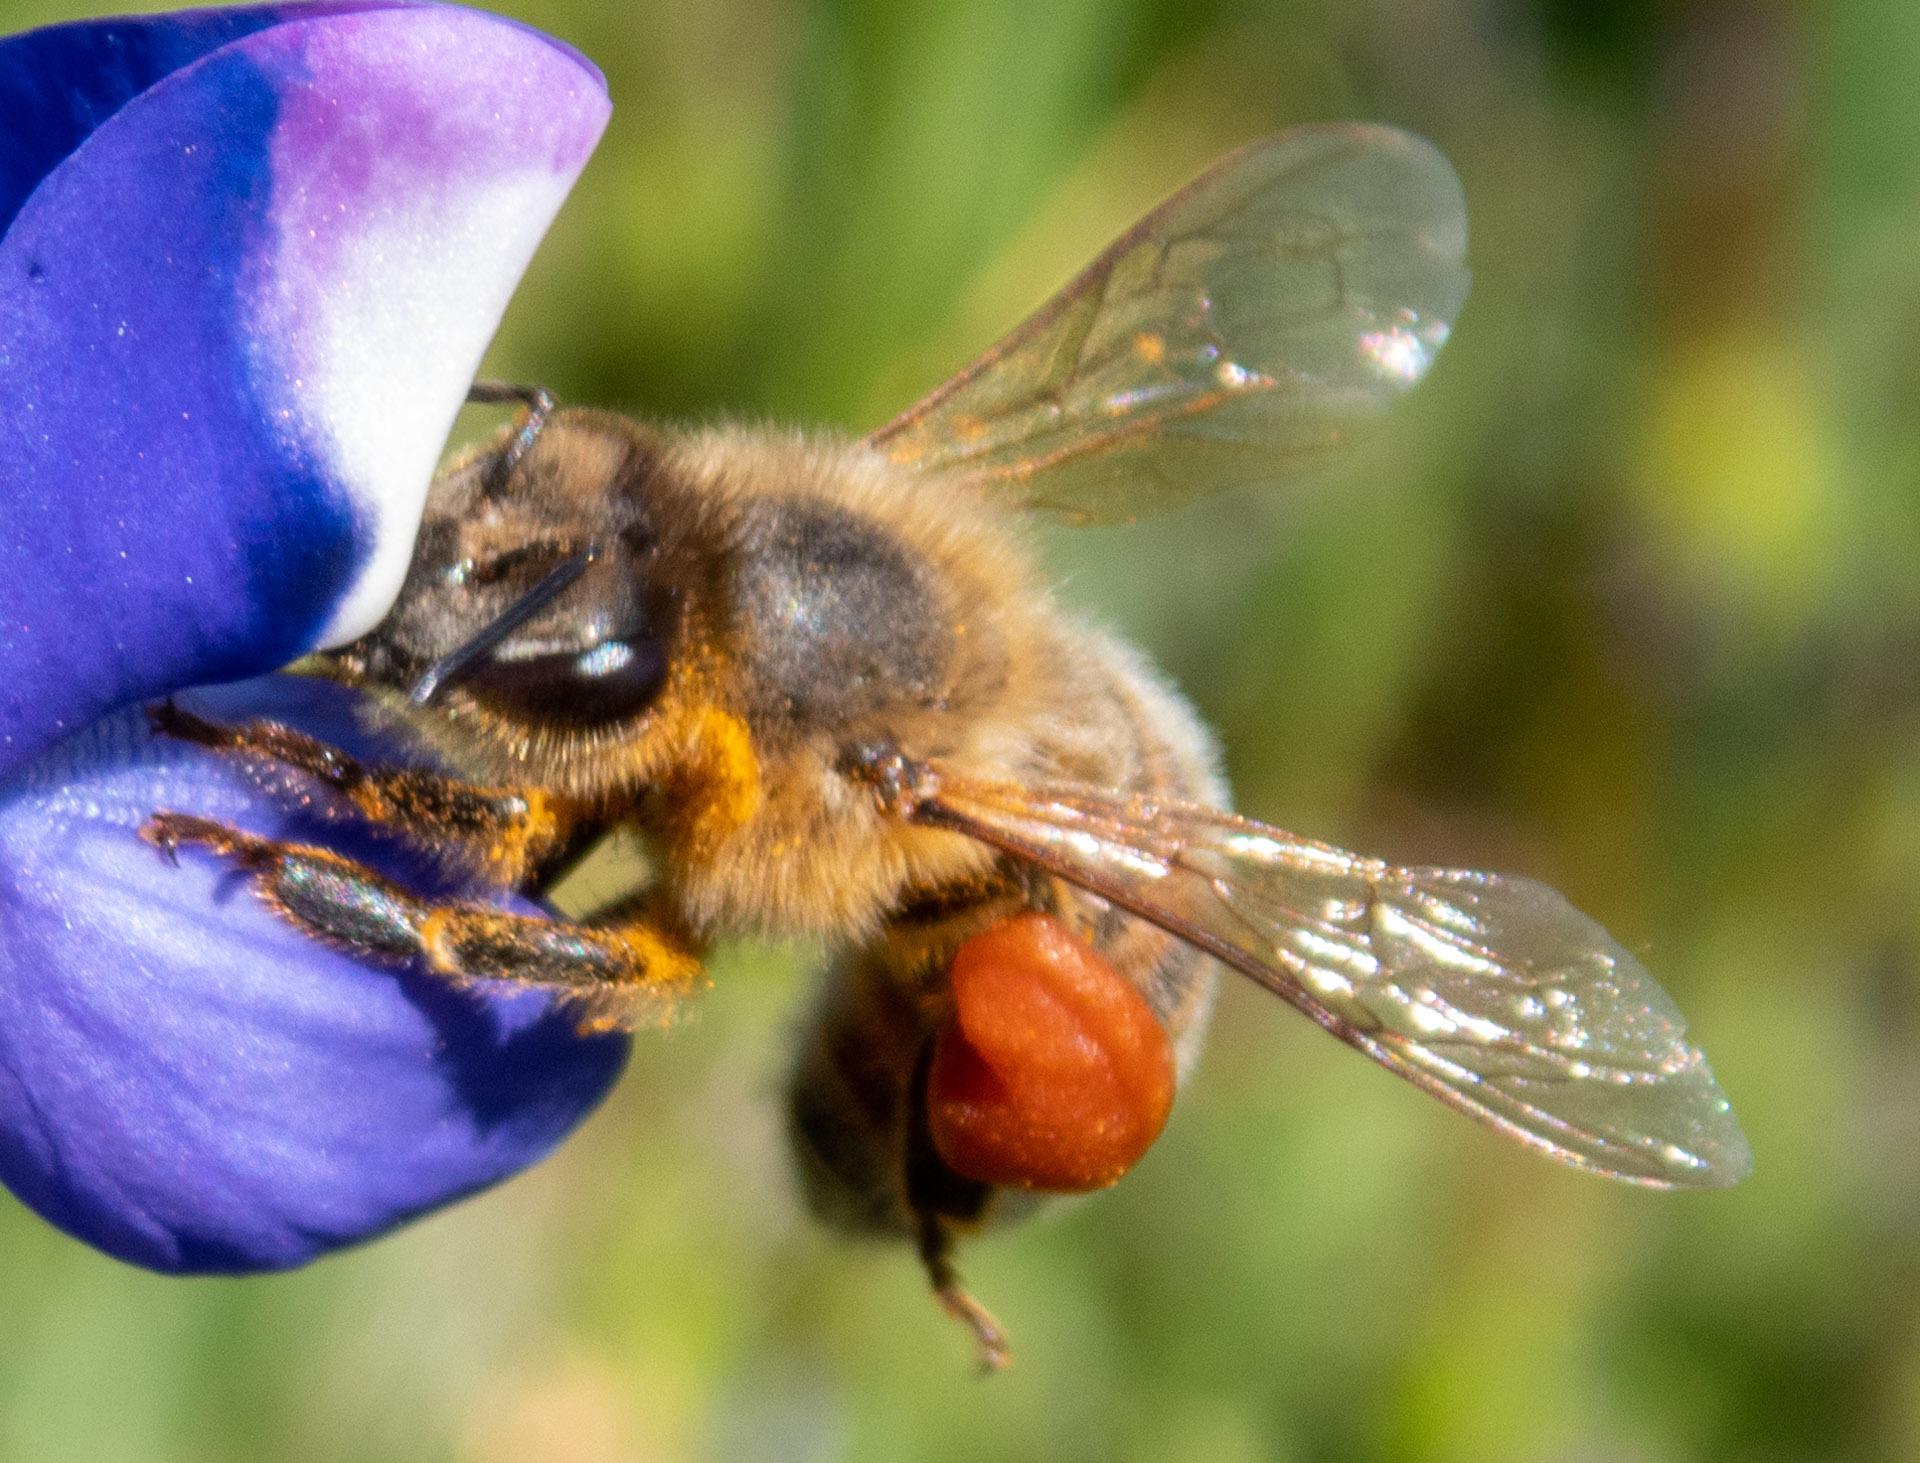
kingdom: Animalia
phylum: Arthropoda
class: Insecta
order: Hymenoptera
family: Apidae
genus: Apis
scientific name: Apis mellifera
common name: Honey bee
